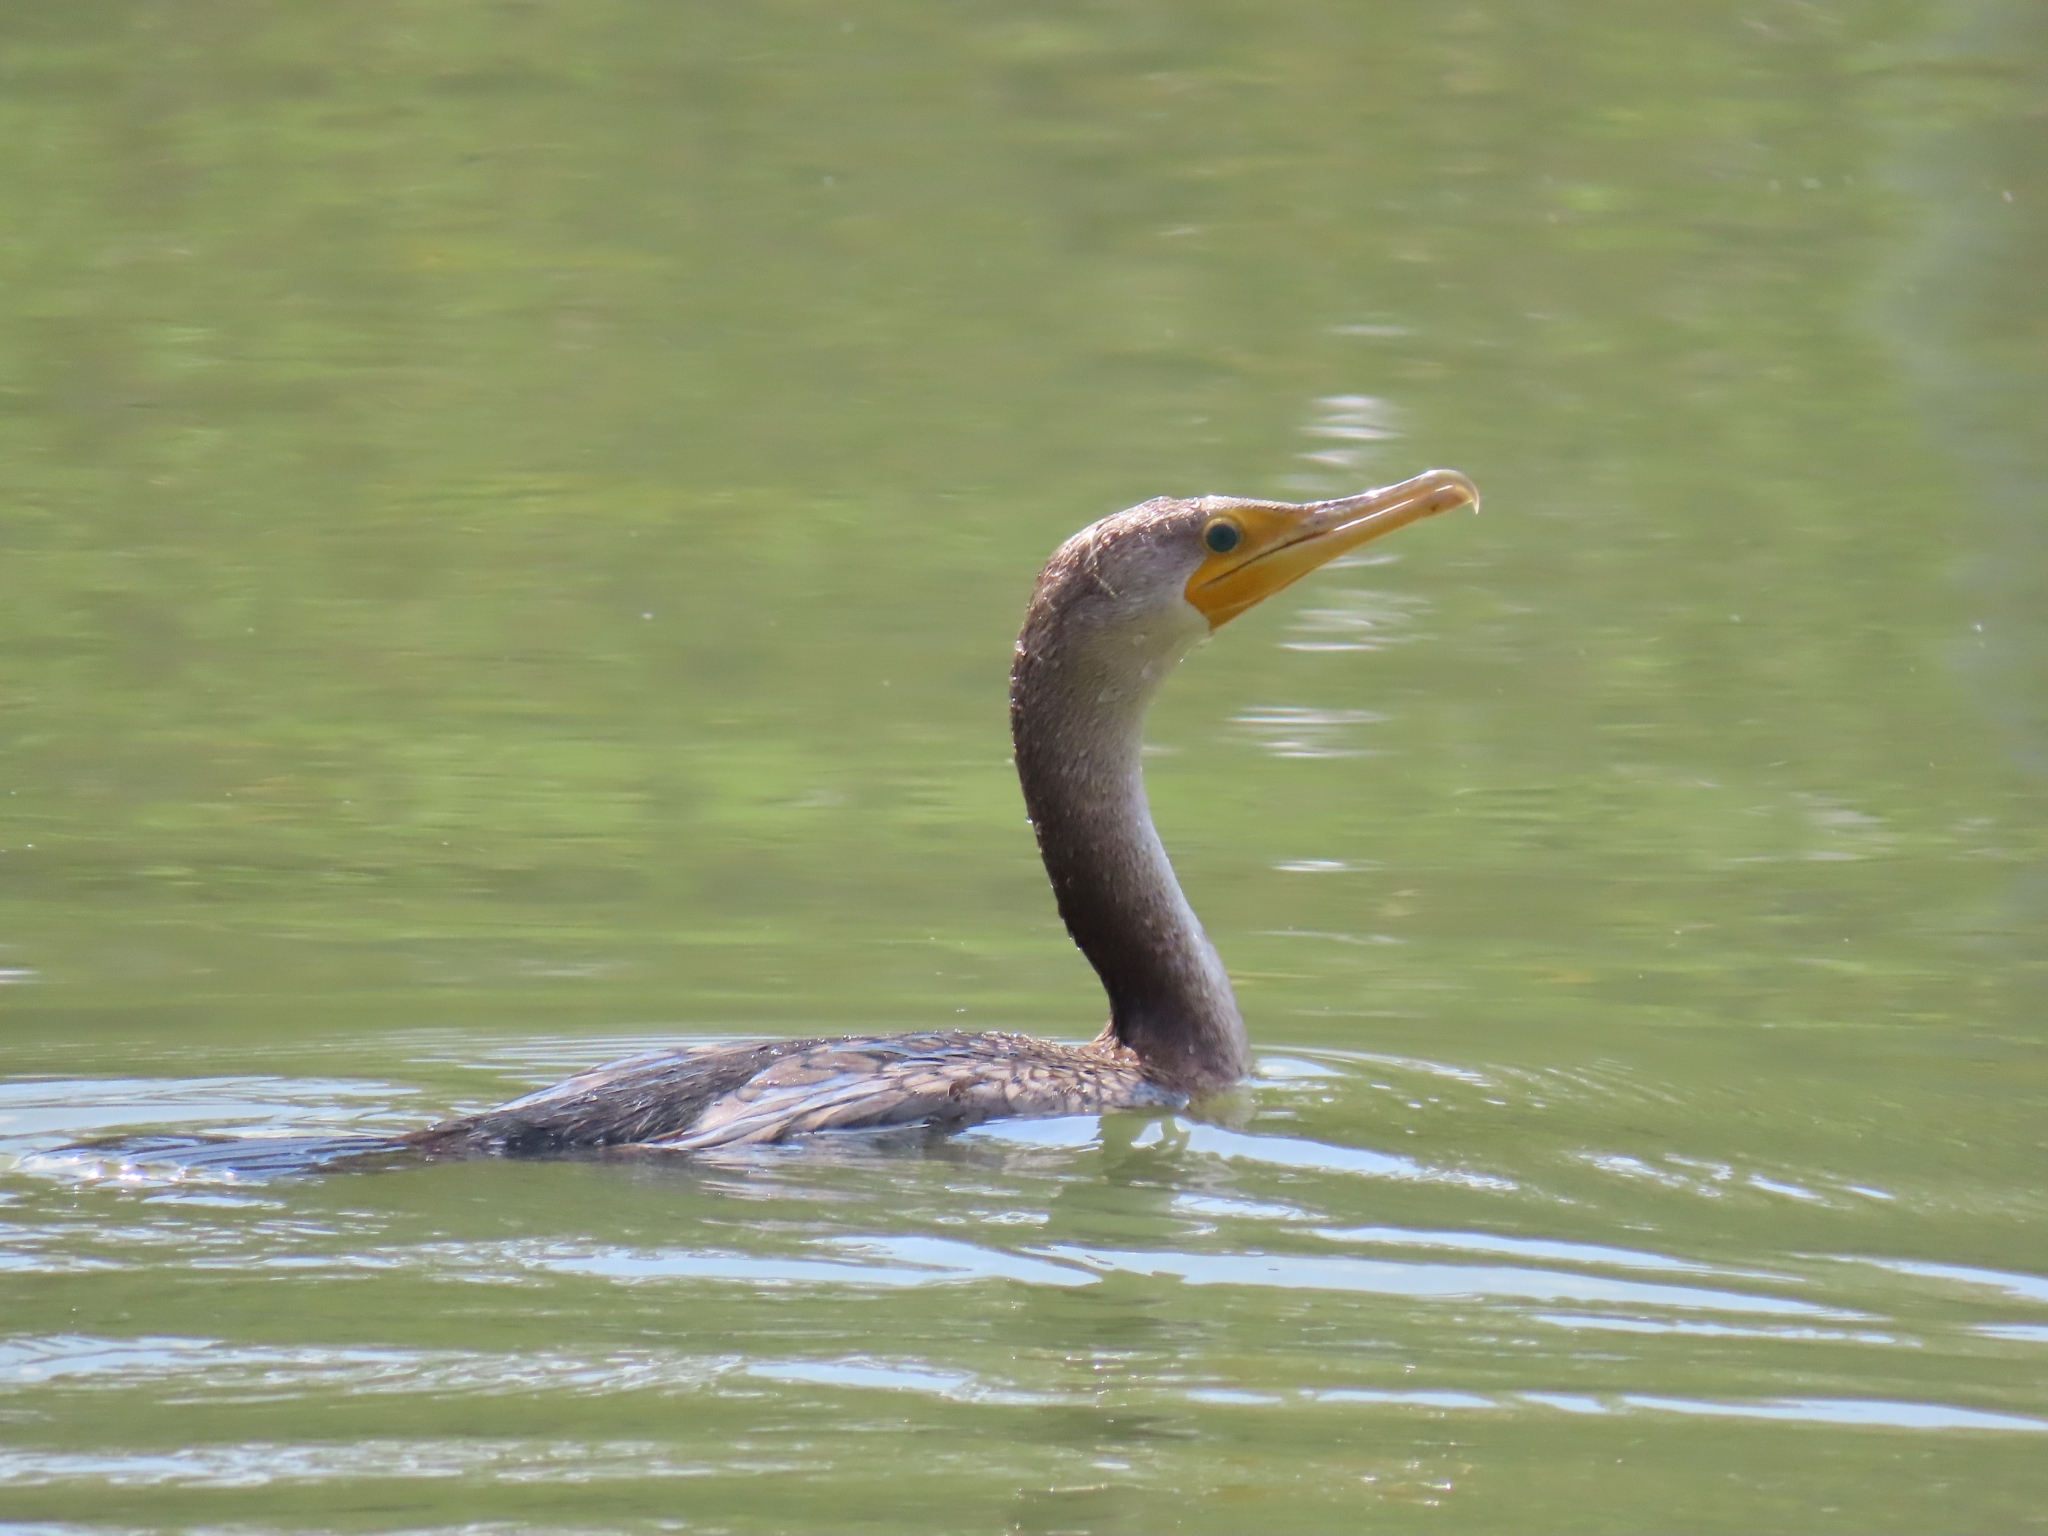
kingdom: Animalia
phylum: Chordata
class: Aves
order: Suliformes
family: Phalacrocoracidae
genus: Phalacrocorax
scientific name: Phalacrocorax auritus
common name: Double-crested cormorant
